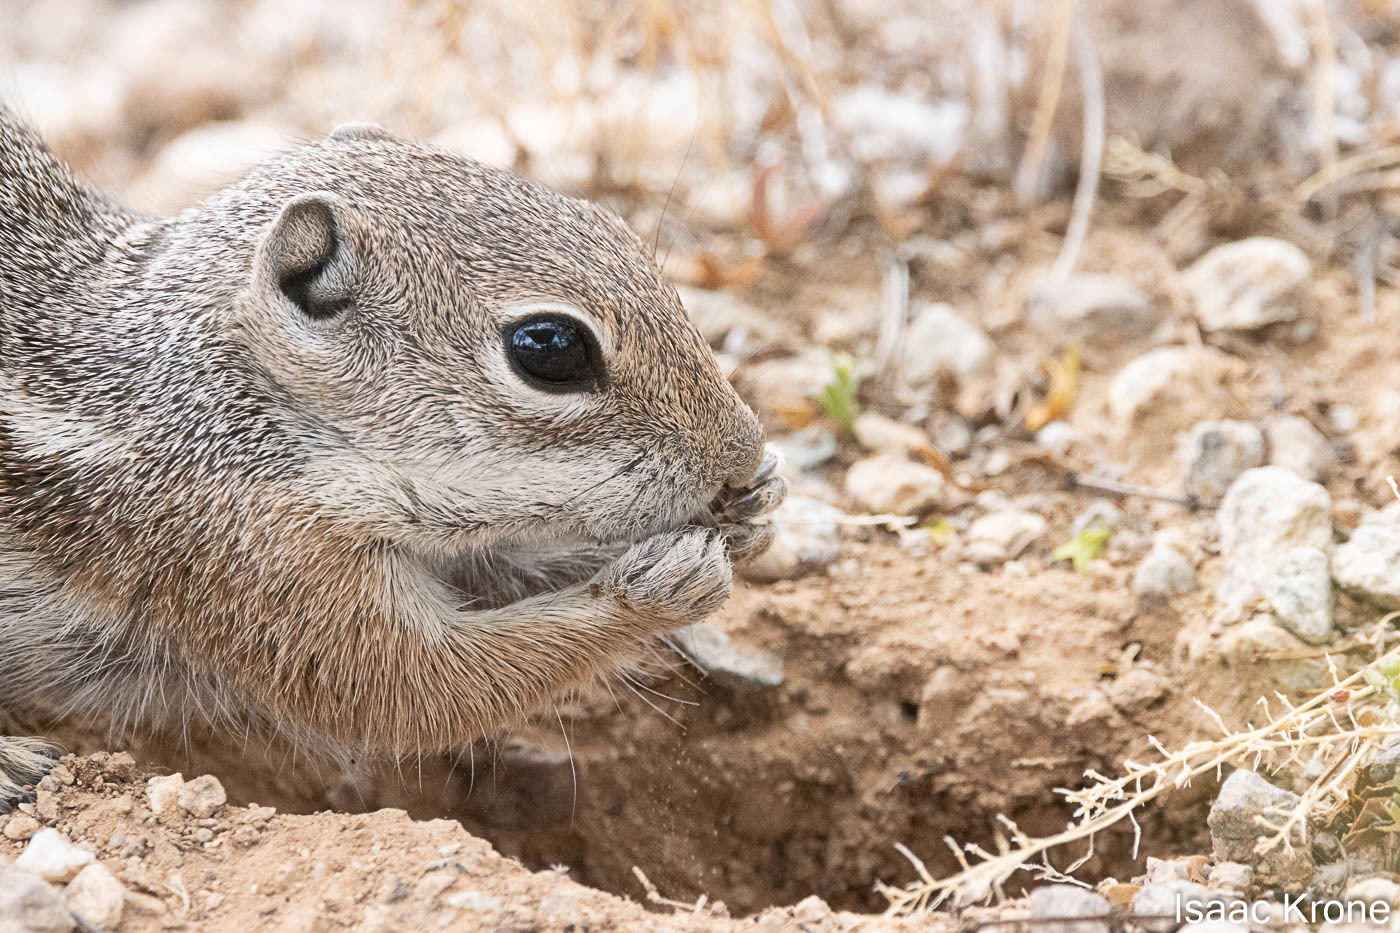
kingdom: Animalia
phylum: Chordata
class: Mammalia
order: Rodentia
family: Sciuridae
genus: Ammospermophilus
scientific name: Ammospermophilus harrisii
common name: Harris's antelope squirrel
